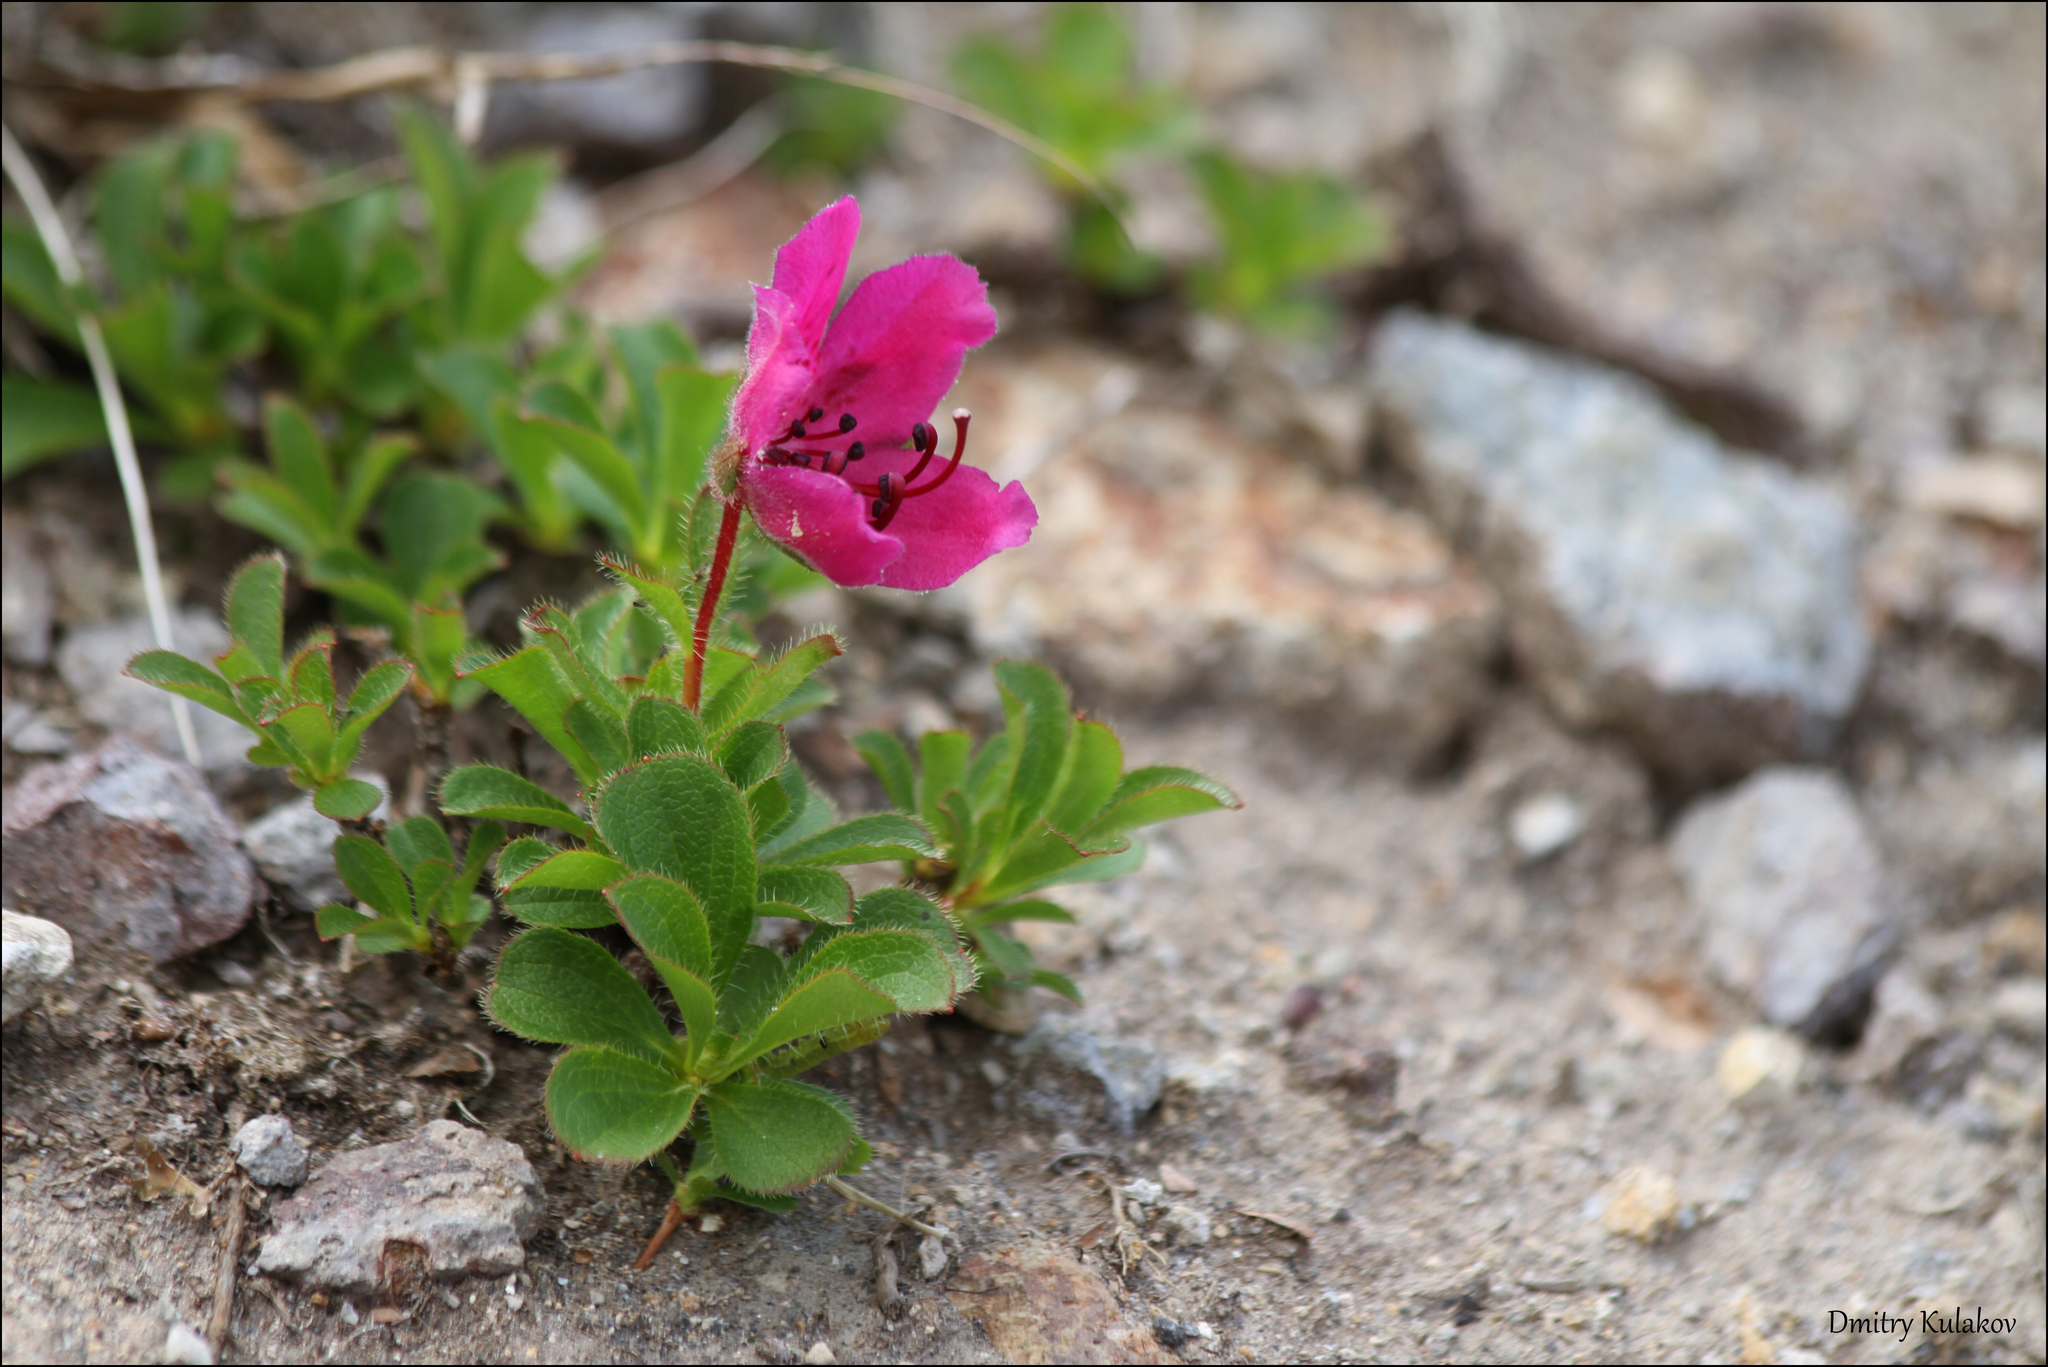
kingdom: Plantae
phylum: Tracheophyta
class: Magnoliopsida
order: Ericales
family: Ericaceae
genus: Rhododendron
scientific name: Rhododendron camtschaticum
